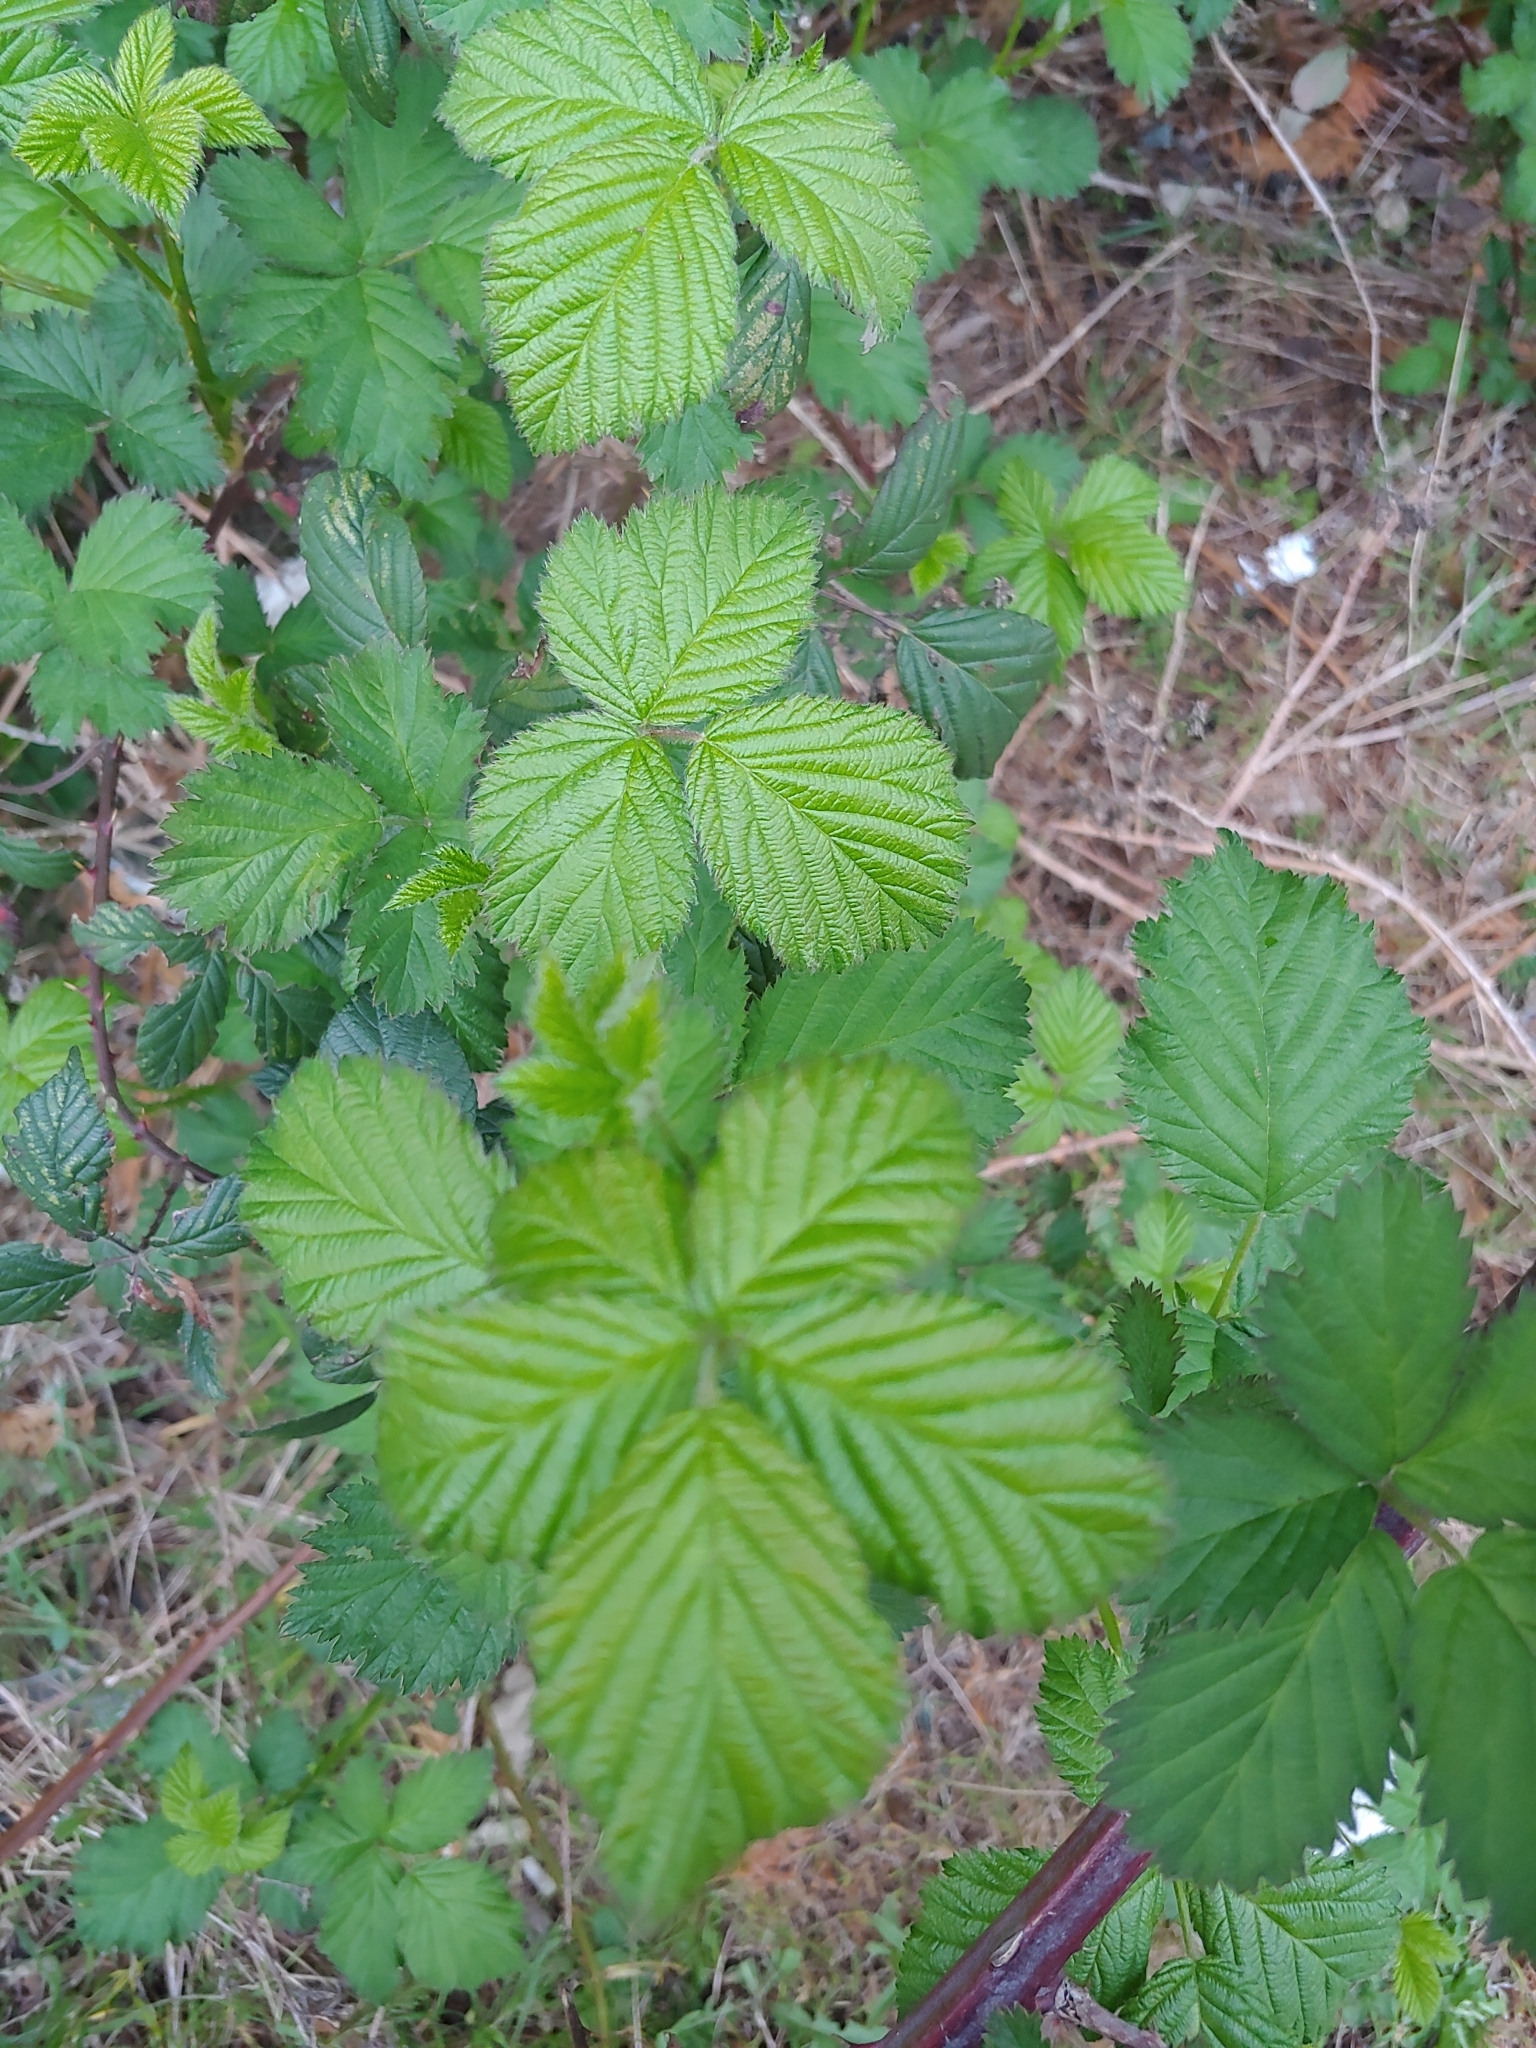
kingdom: Plantae
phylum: Tracheophyta
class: Magnoliopsida
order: Rosales
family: Rosaceae
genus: Rubus
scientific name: Rubus bifrons
